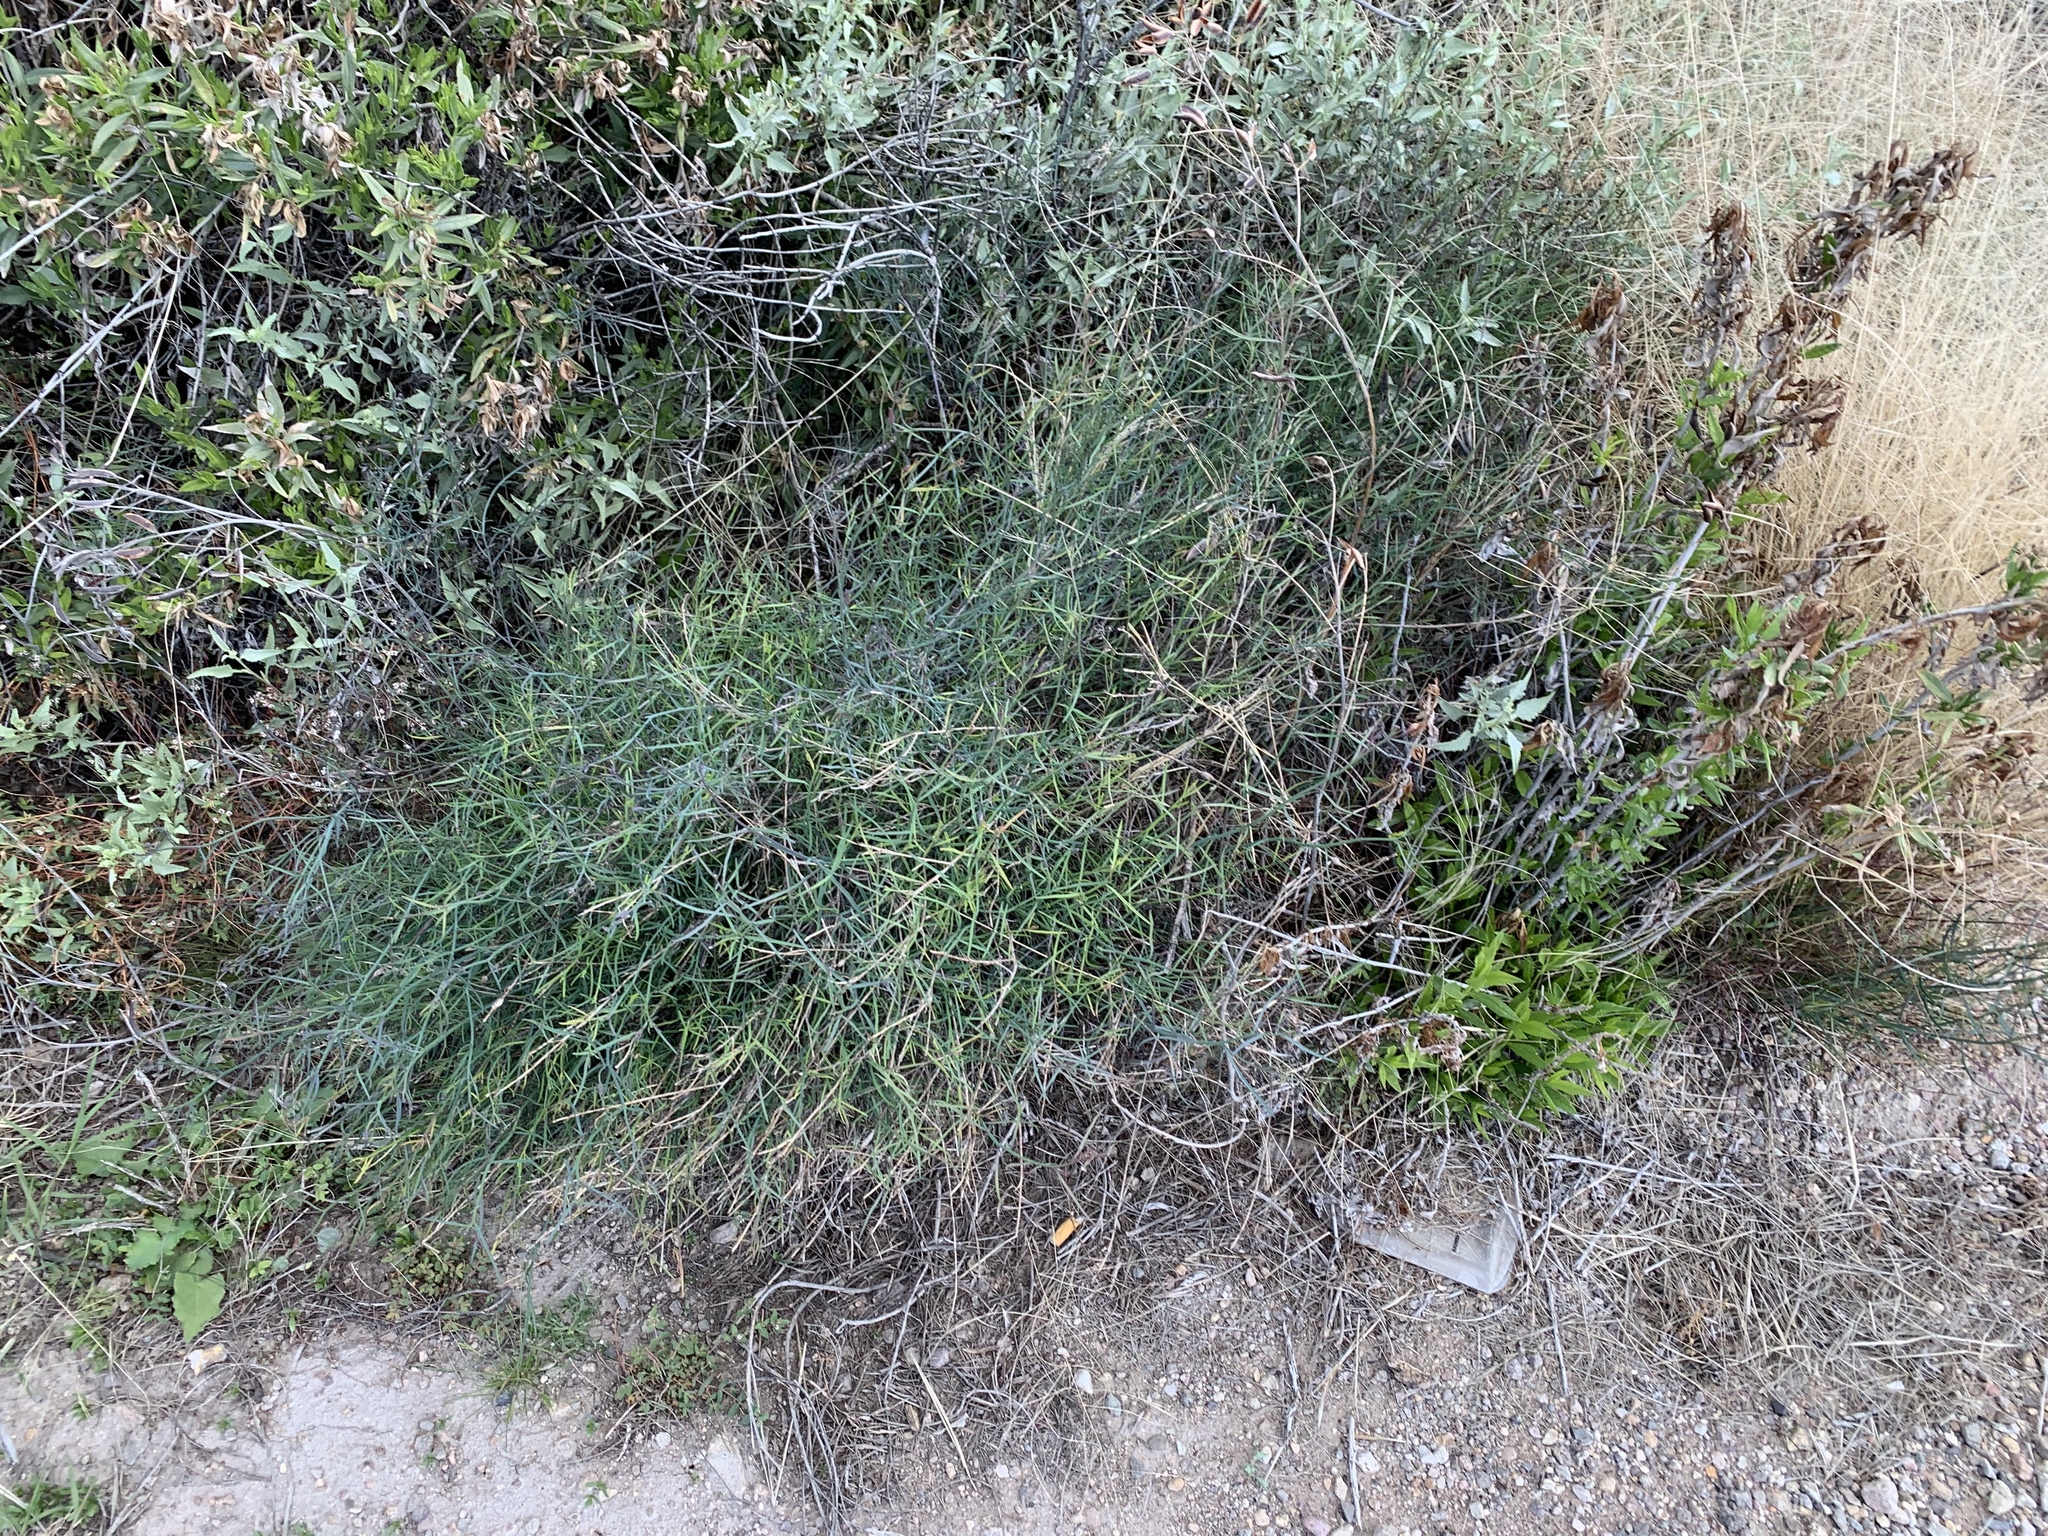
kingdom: Plantae
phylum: Tracheophyta
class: Magnoliopsida
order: Asterales
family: Asteraceae
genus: Porophyllum
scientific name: Porophyllum gracile
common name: Odora
